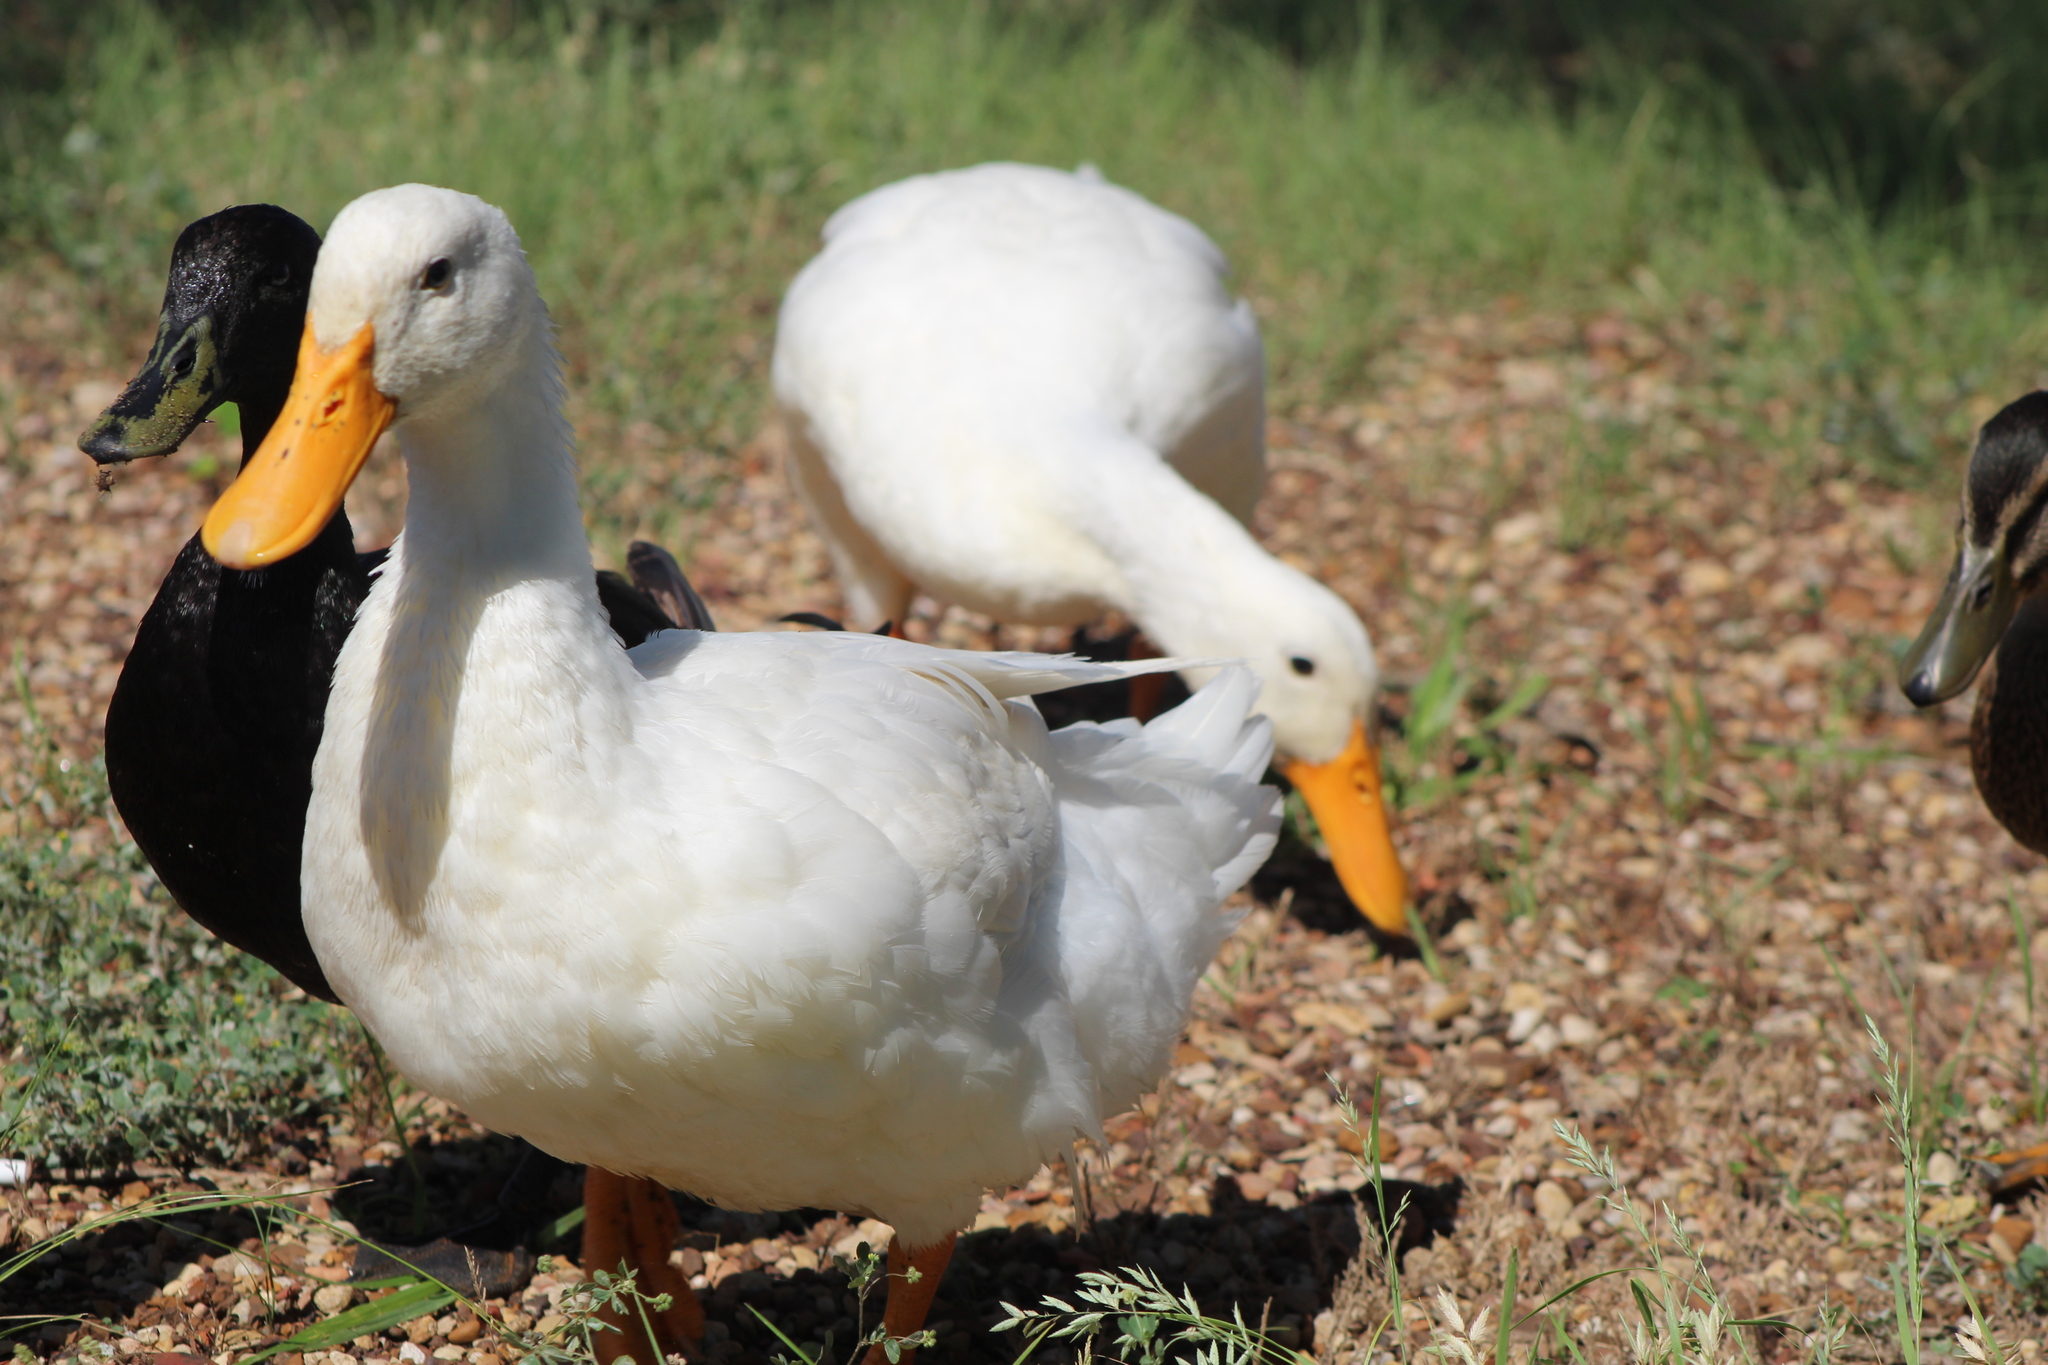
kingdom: Animalia
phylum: Chordata
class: Aves
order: Anseriformes
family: Anatidae
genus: Anas
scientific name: Anas platyrhynchos
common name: Mallard
